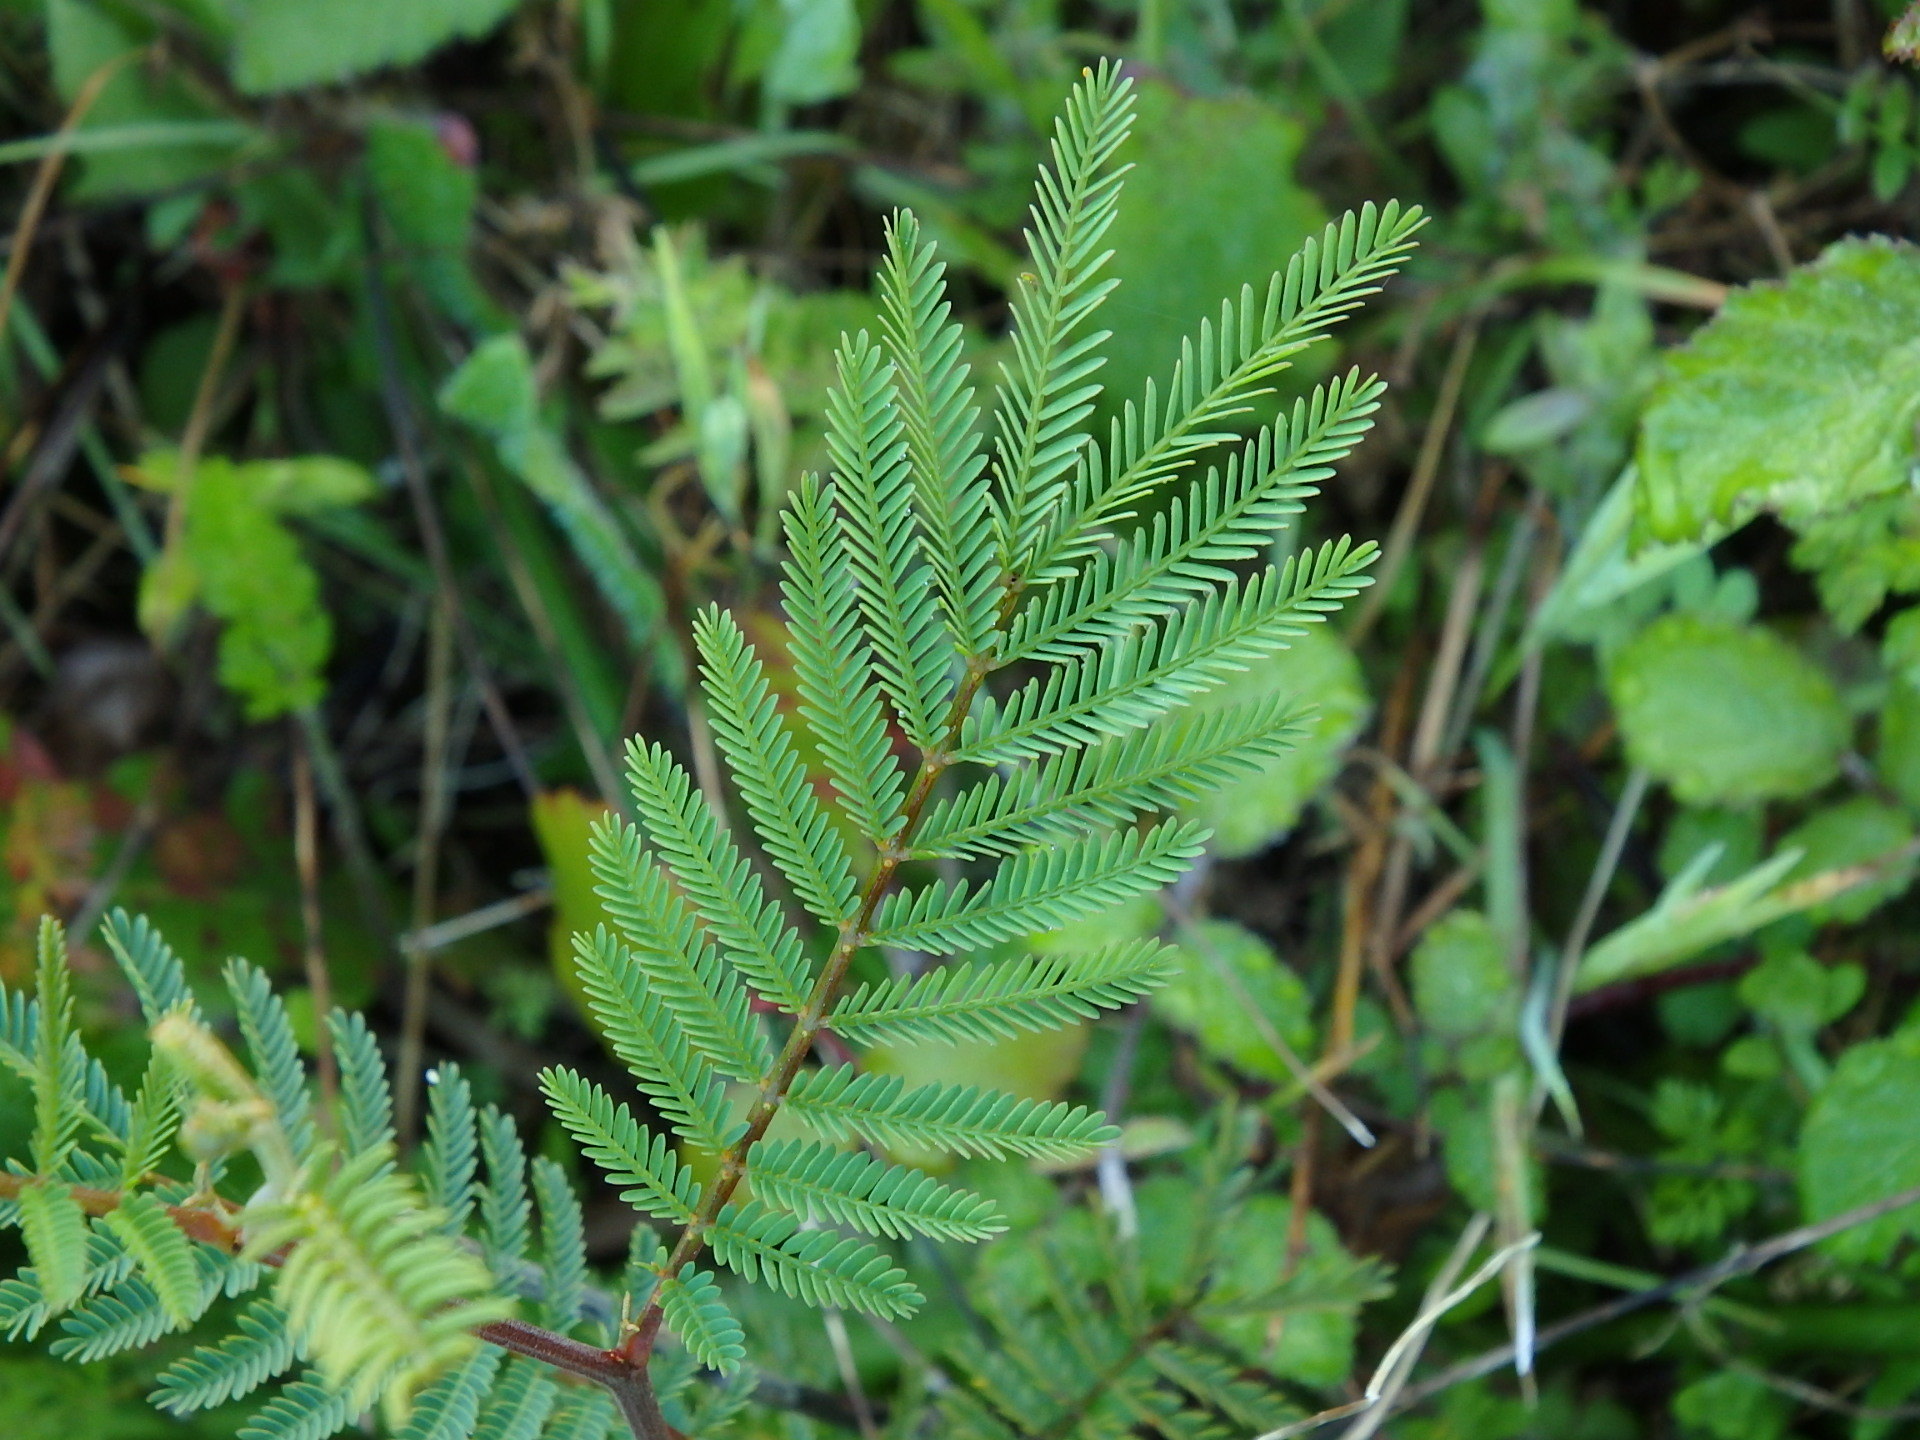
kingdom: Plantae
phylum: Tracheophyta
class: Magnoliopsida
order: Fabales
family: Fabaceae
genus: Acacia
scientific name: Acacia dealbata
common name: Silver wattle
